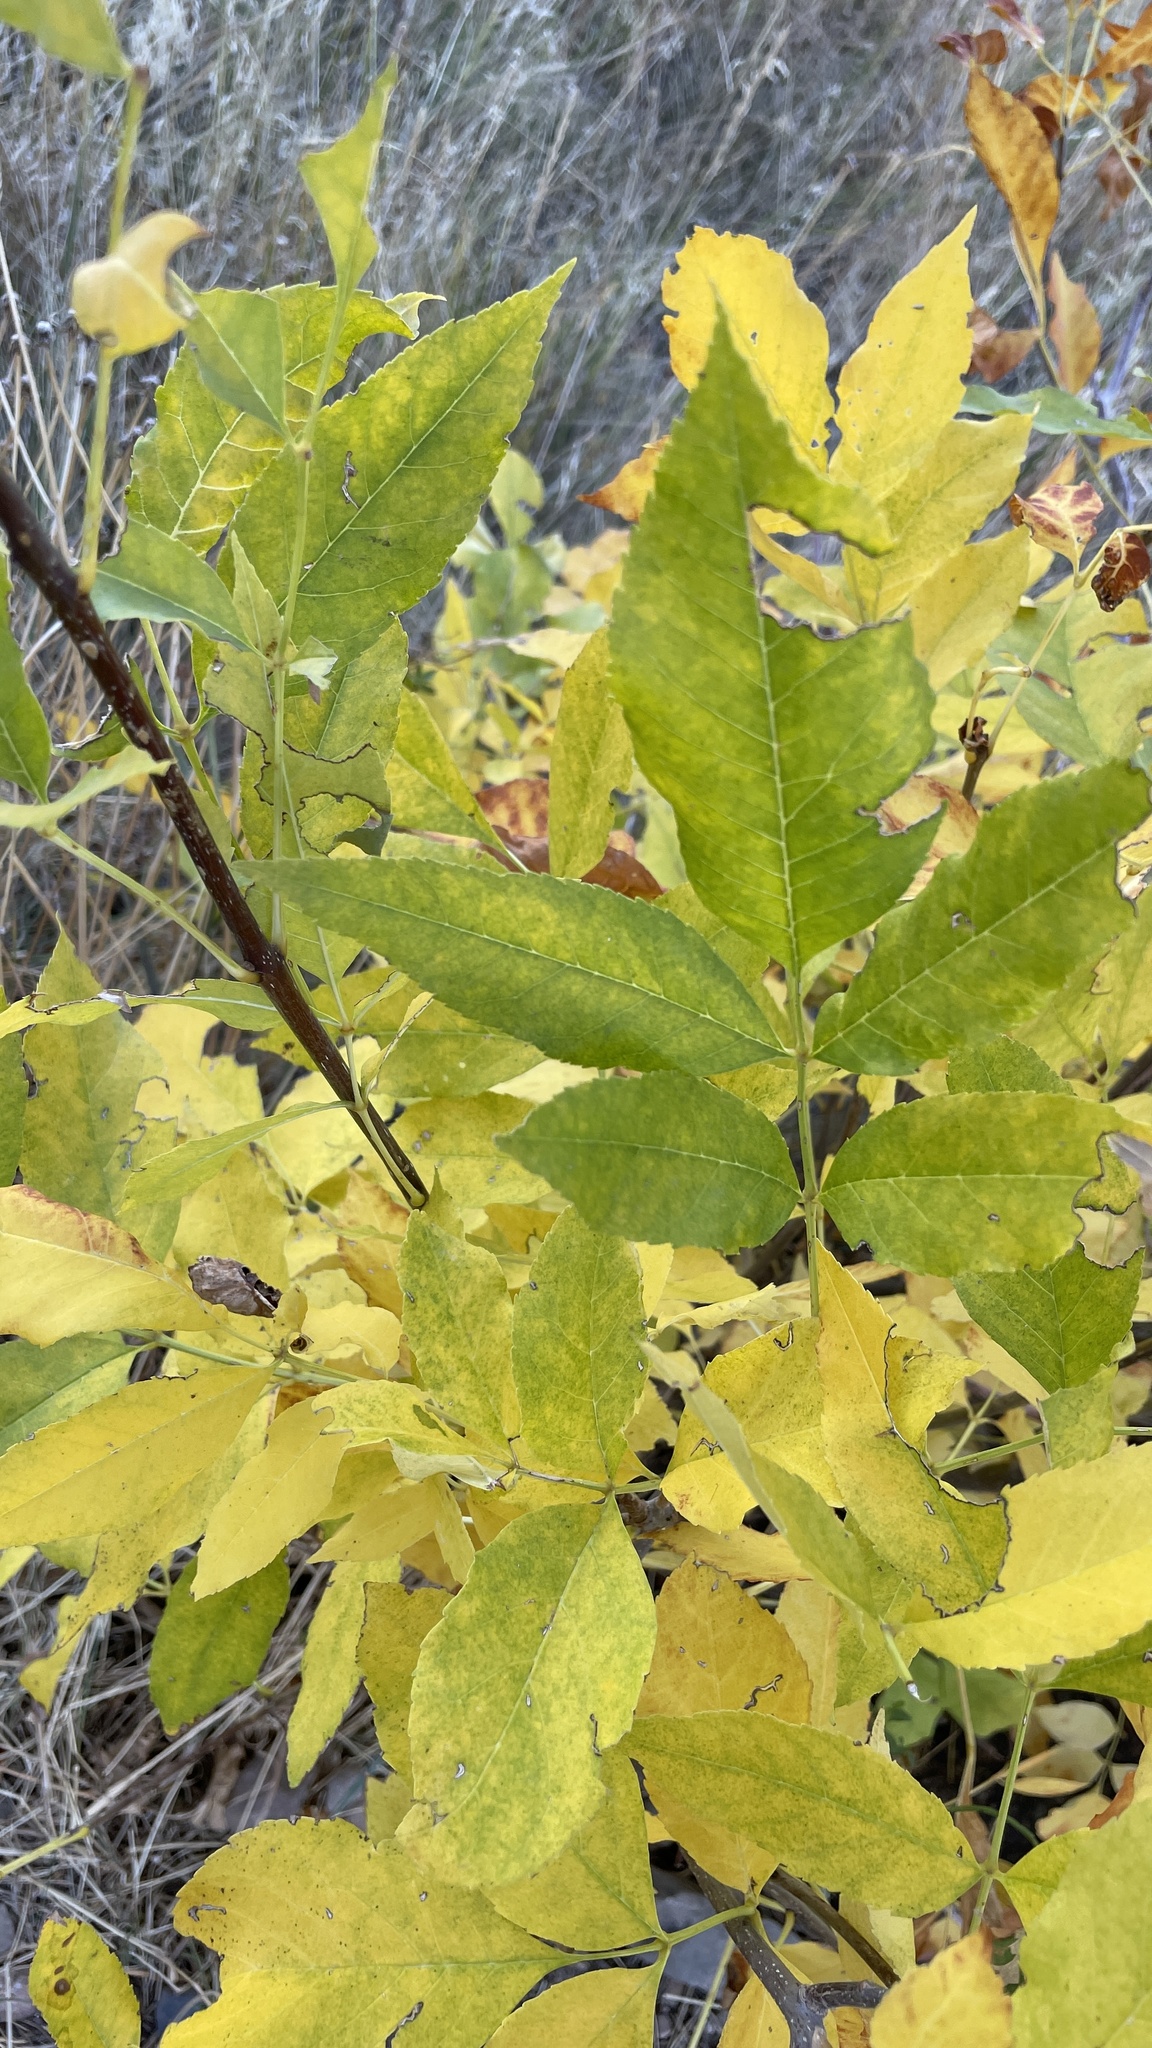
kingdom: Plantae
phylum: Tracheophyta
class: Magnoliopsida
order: Lamiales
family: Oleaceae
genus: Fraxinus
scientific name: Fraxinus pennsylvanica
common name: Green ash
